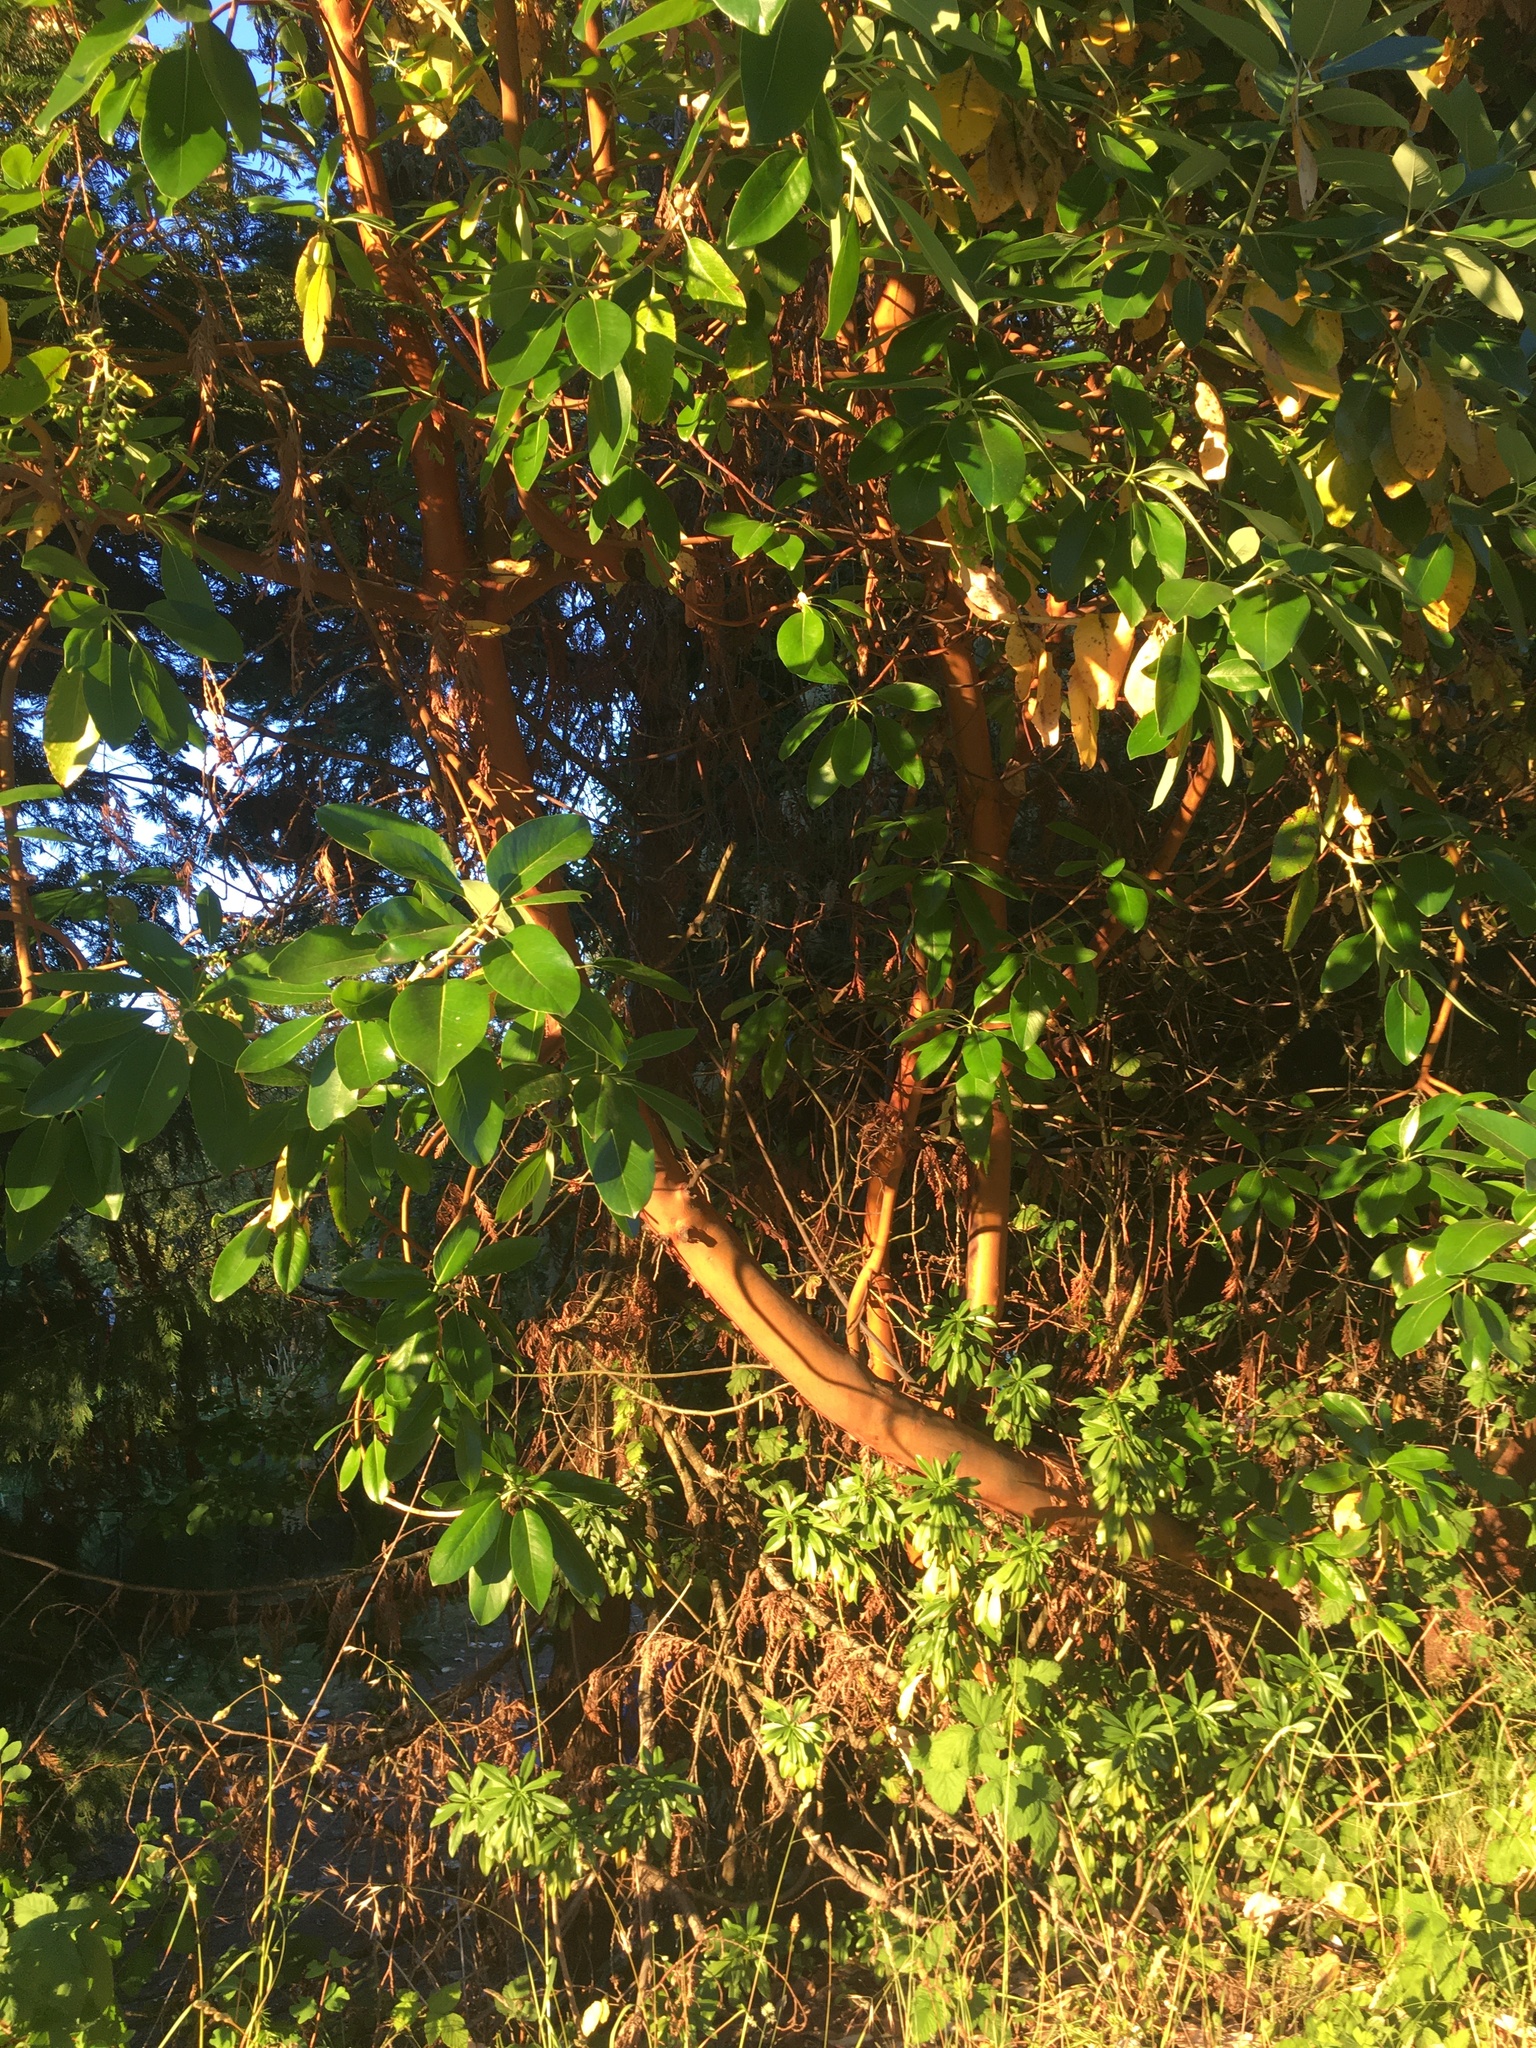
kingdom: Plantae
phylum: Tracheophyta
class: Magnoliopsida
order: Ericales
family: Ericaceae
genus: Arbutus
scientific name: Arbutus menziesii
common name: Pacific madrone
